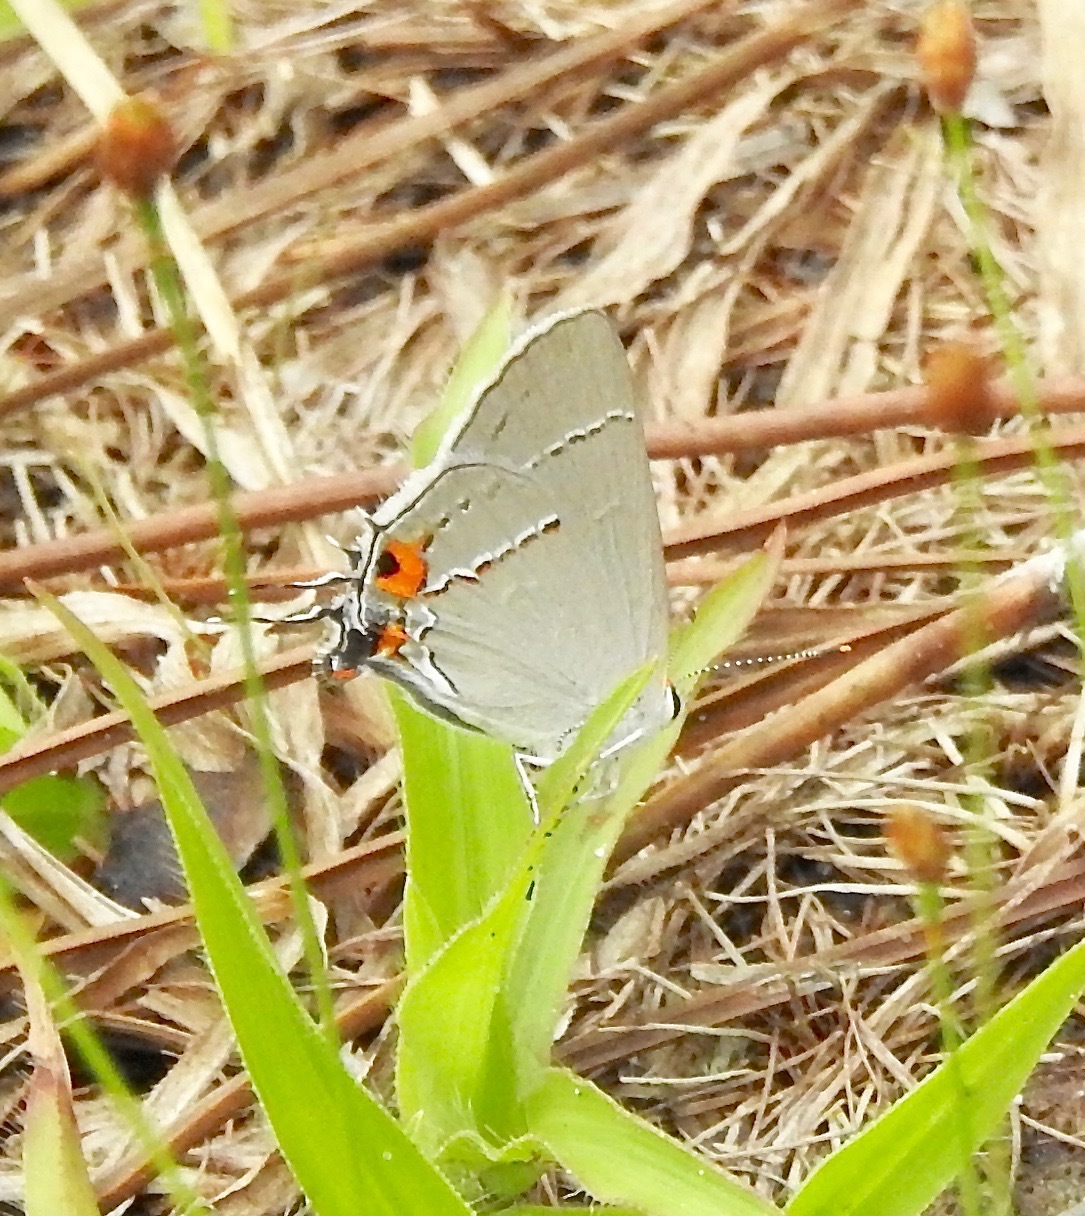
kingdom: Animalia
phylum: Arthropoda
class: Insecta
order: Lepidoptera
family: Lycaenidae
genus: Strymon
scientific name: Strymon melinus
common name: Gray hairstreak
